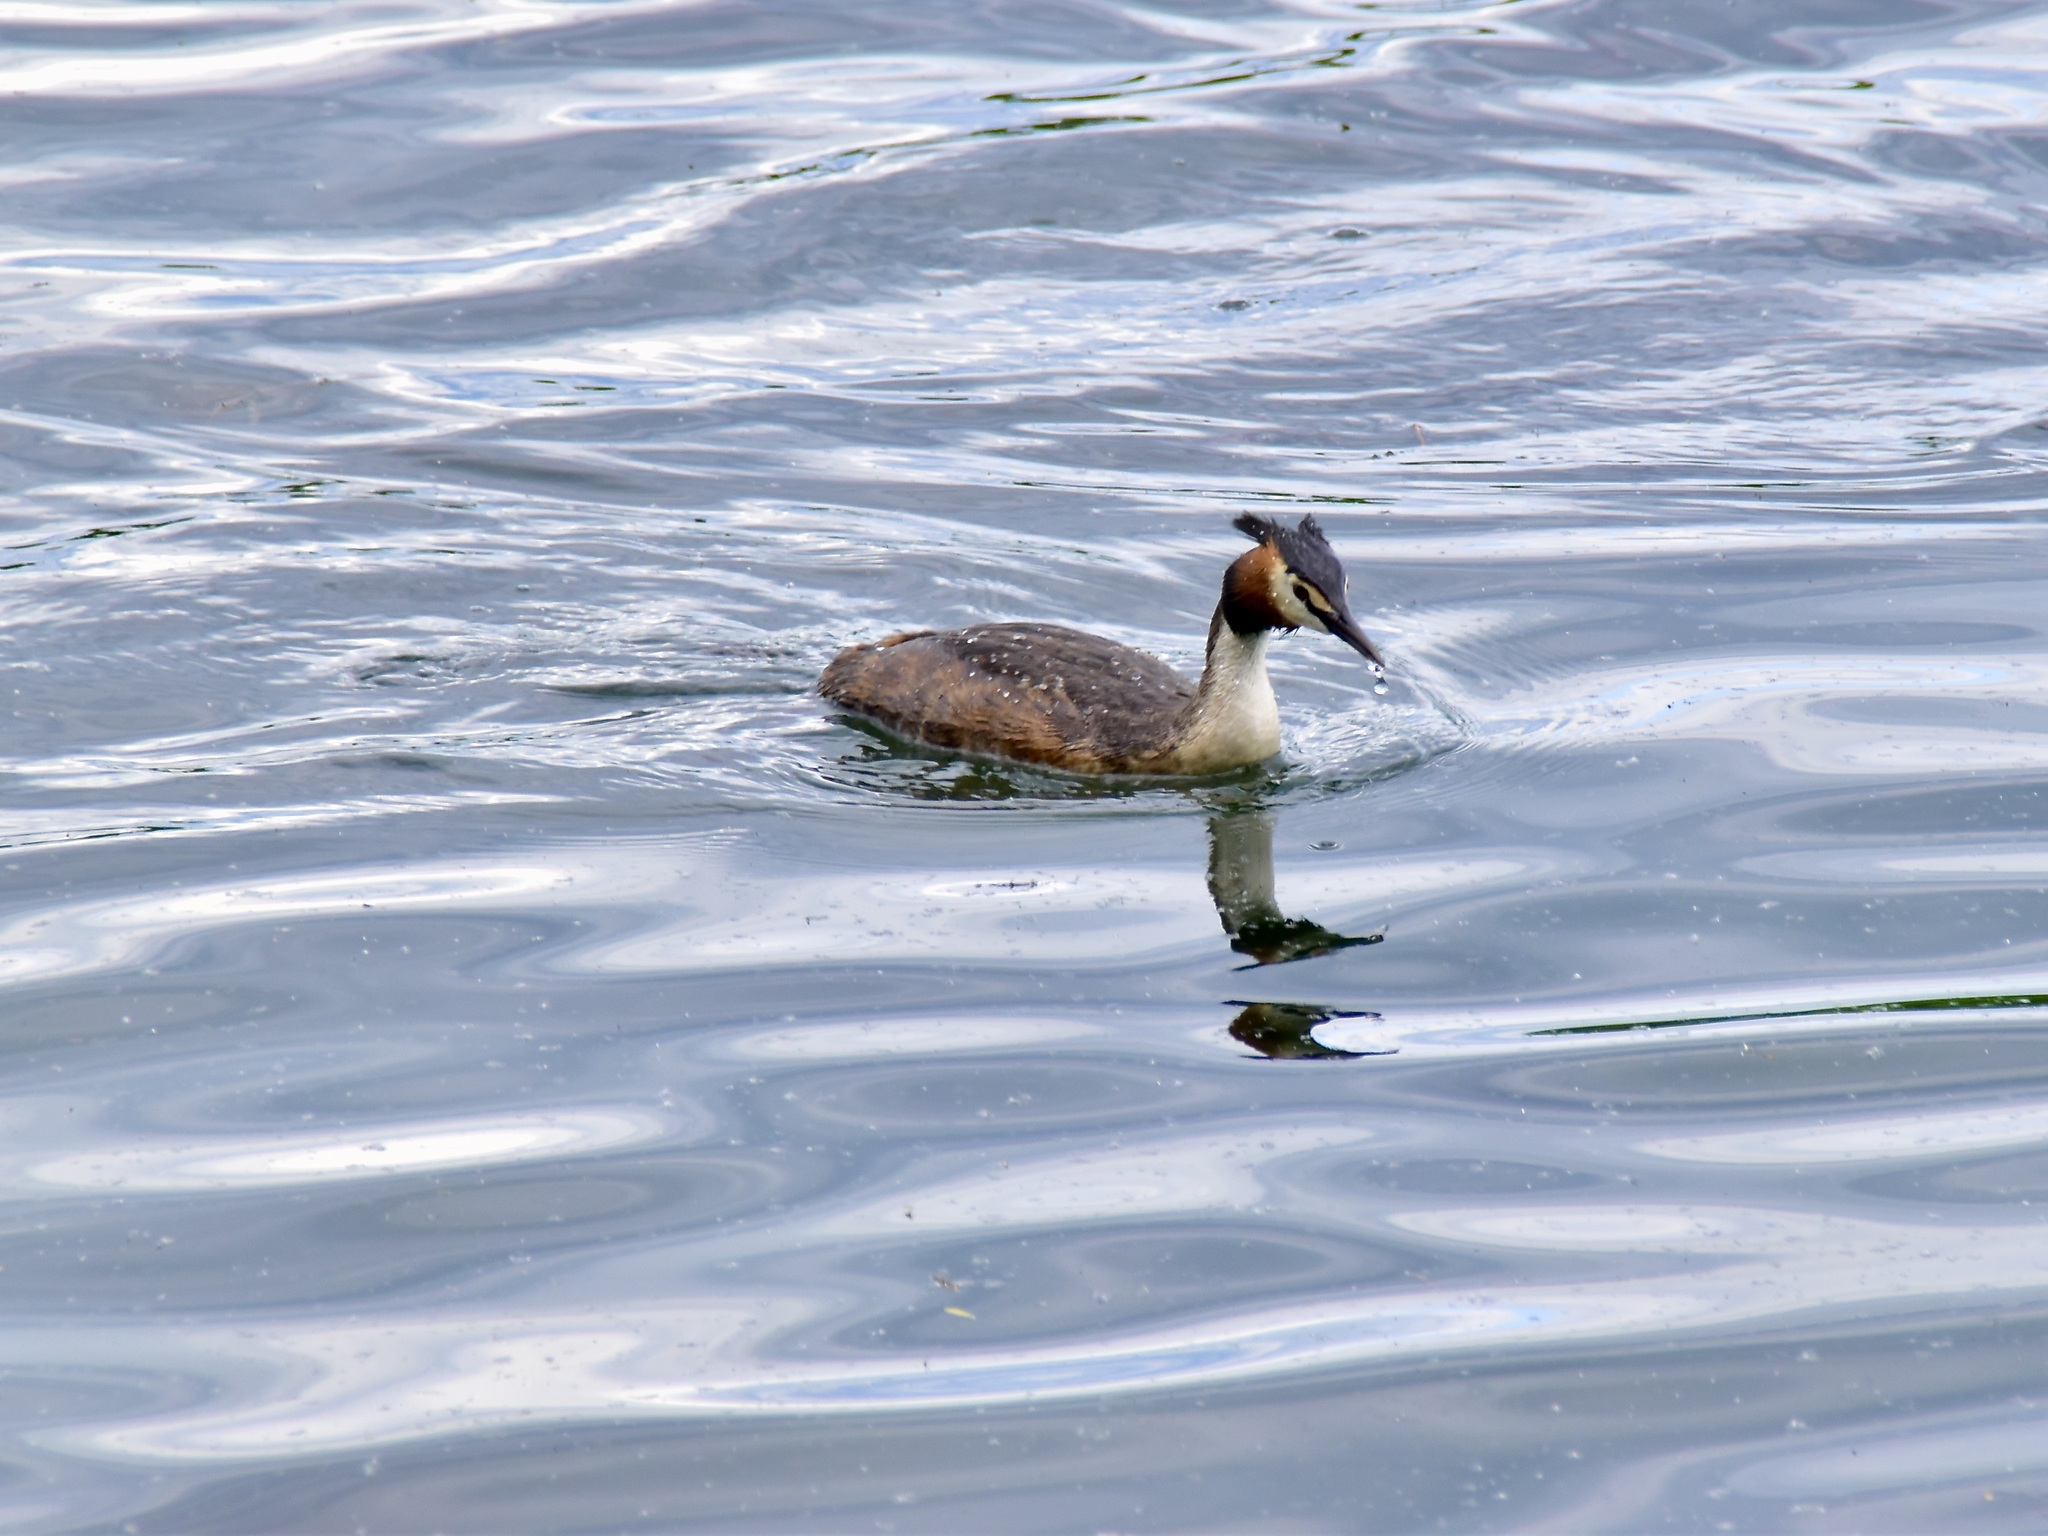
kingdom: Animalia
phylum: Chordata
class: Aves
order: Podicipediformes
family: Podicipedidae
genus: Podiceps
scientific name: Podiceps cristatus
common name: Great crested grebe
